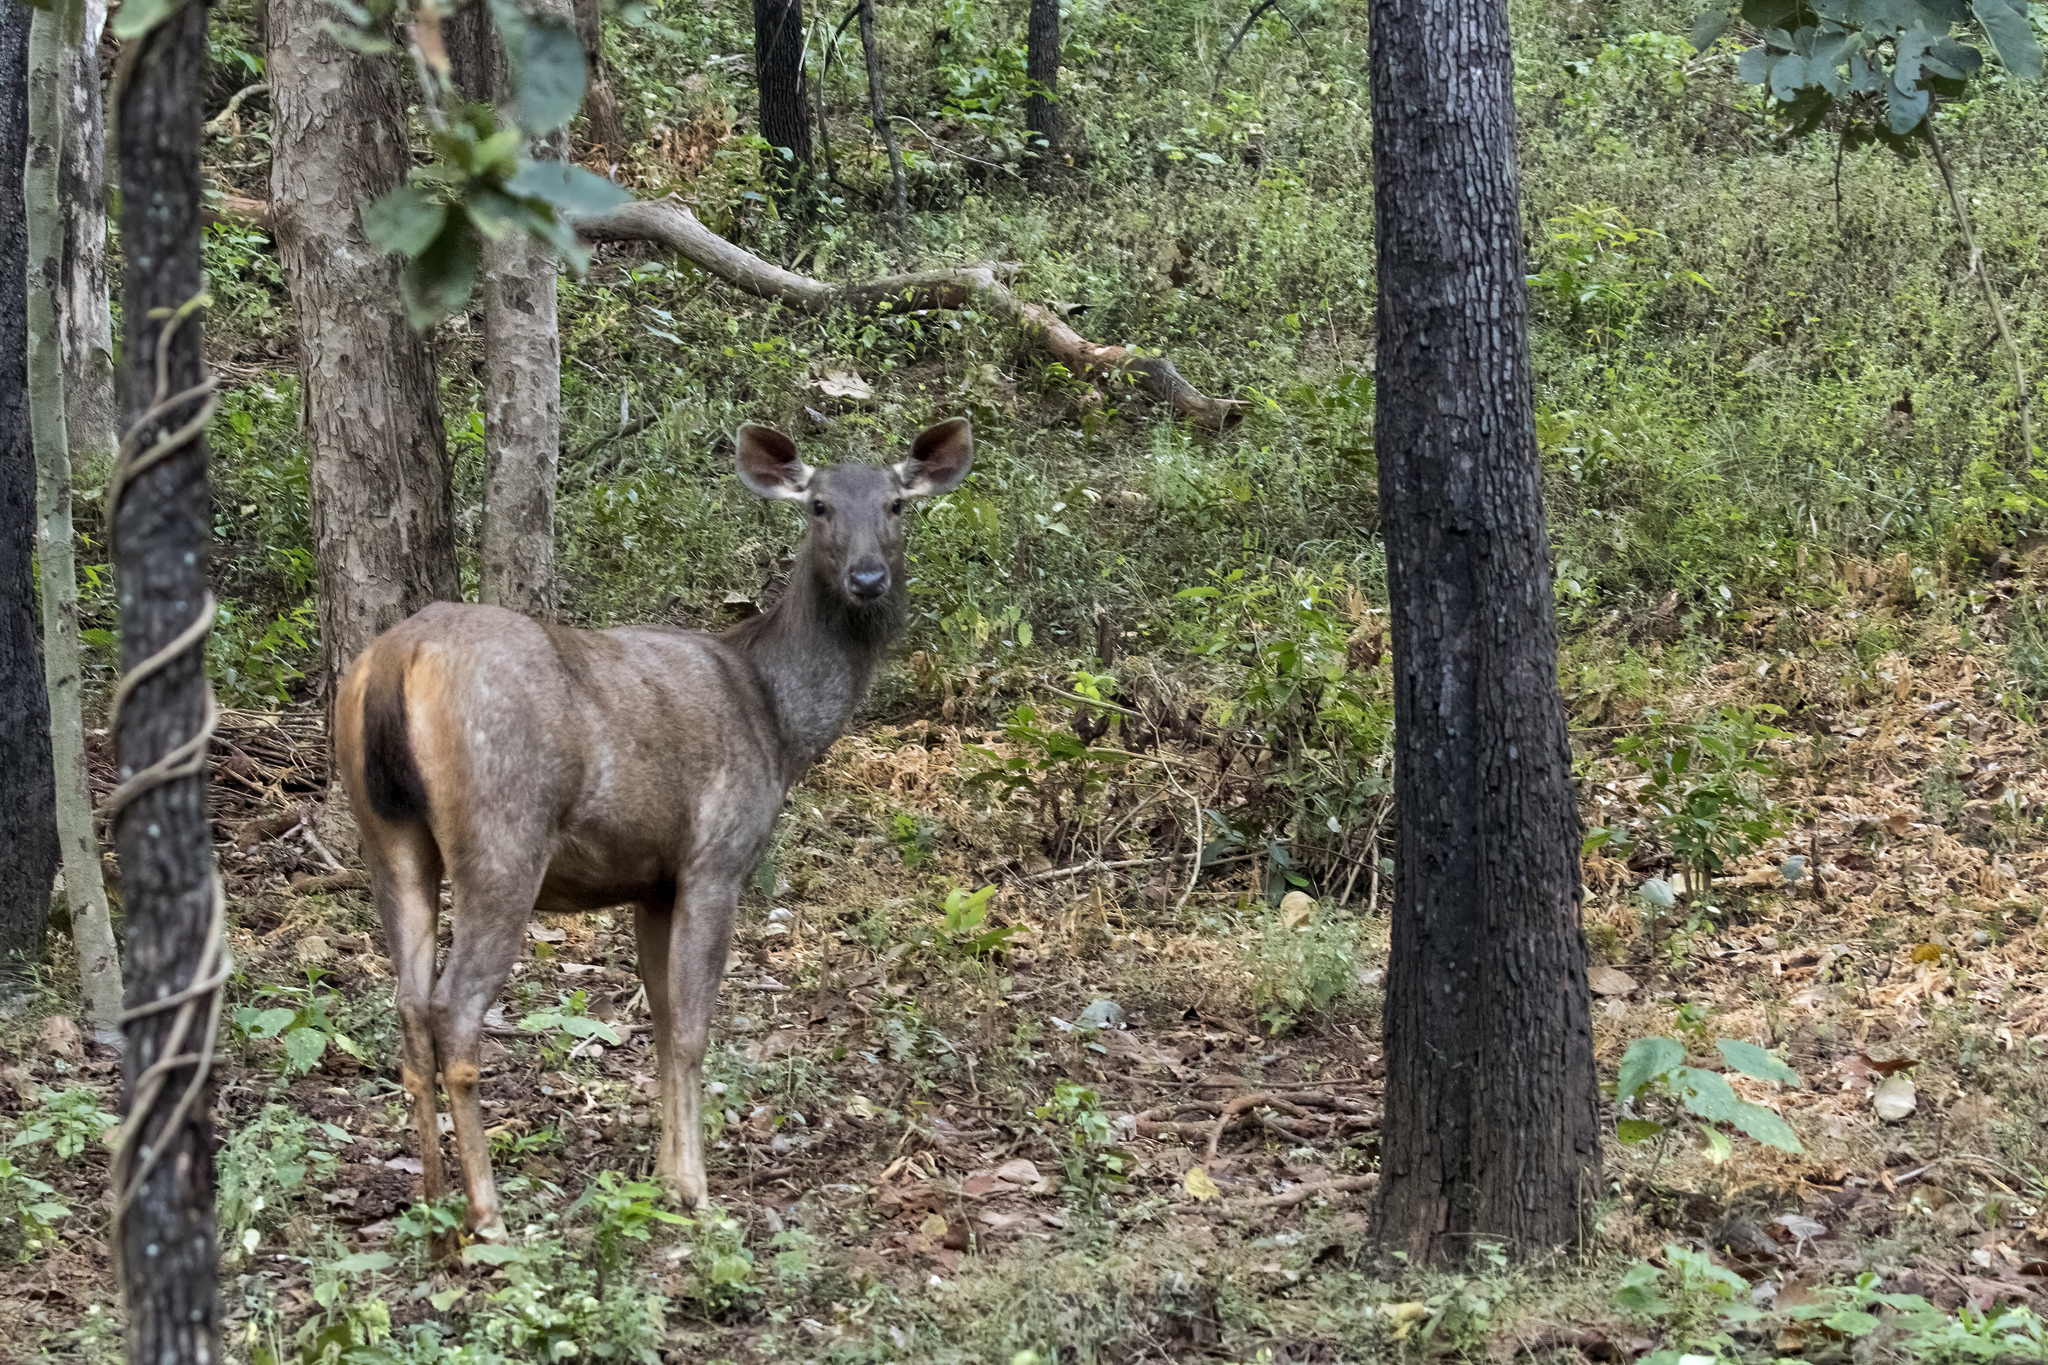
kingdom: Animalia
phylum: Chordata
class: Mammalia
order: Artiodactyla
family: Cervidae
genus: Rusa
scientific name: Rusa unicolor
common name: Sambar
